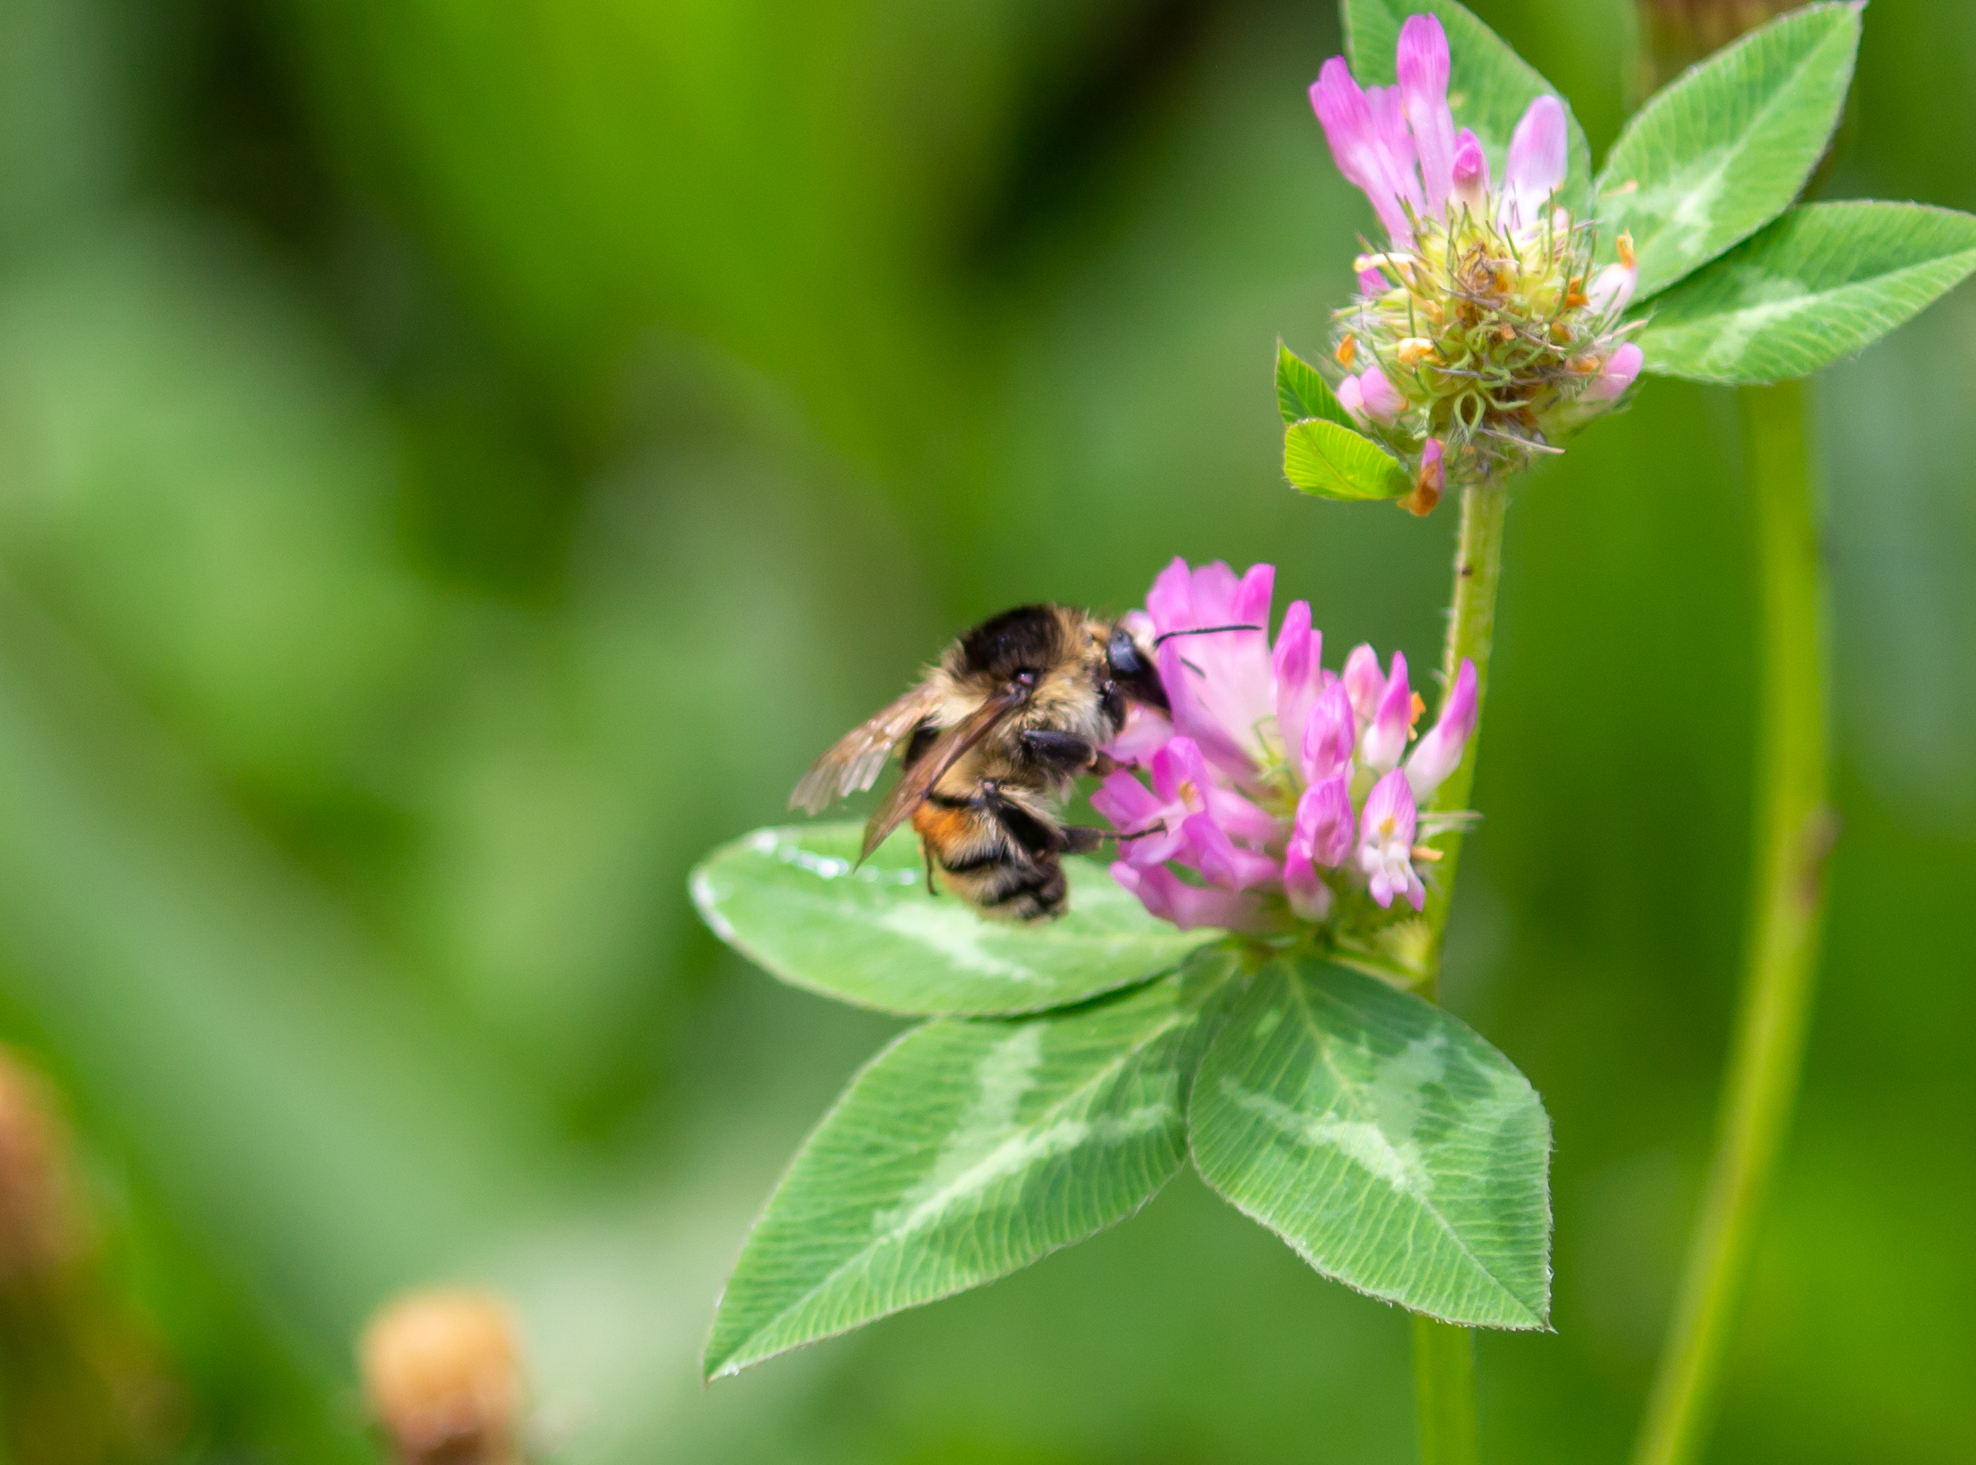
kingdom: Animalia
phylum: Arthropoda
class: Insecta
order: Hymenoptera
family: Apidae
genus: Bombus
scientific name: Bombus humilis
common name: Brown-banded carder-bee
